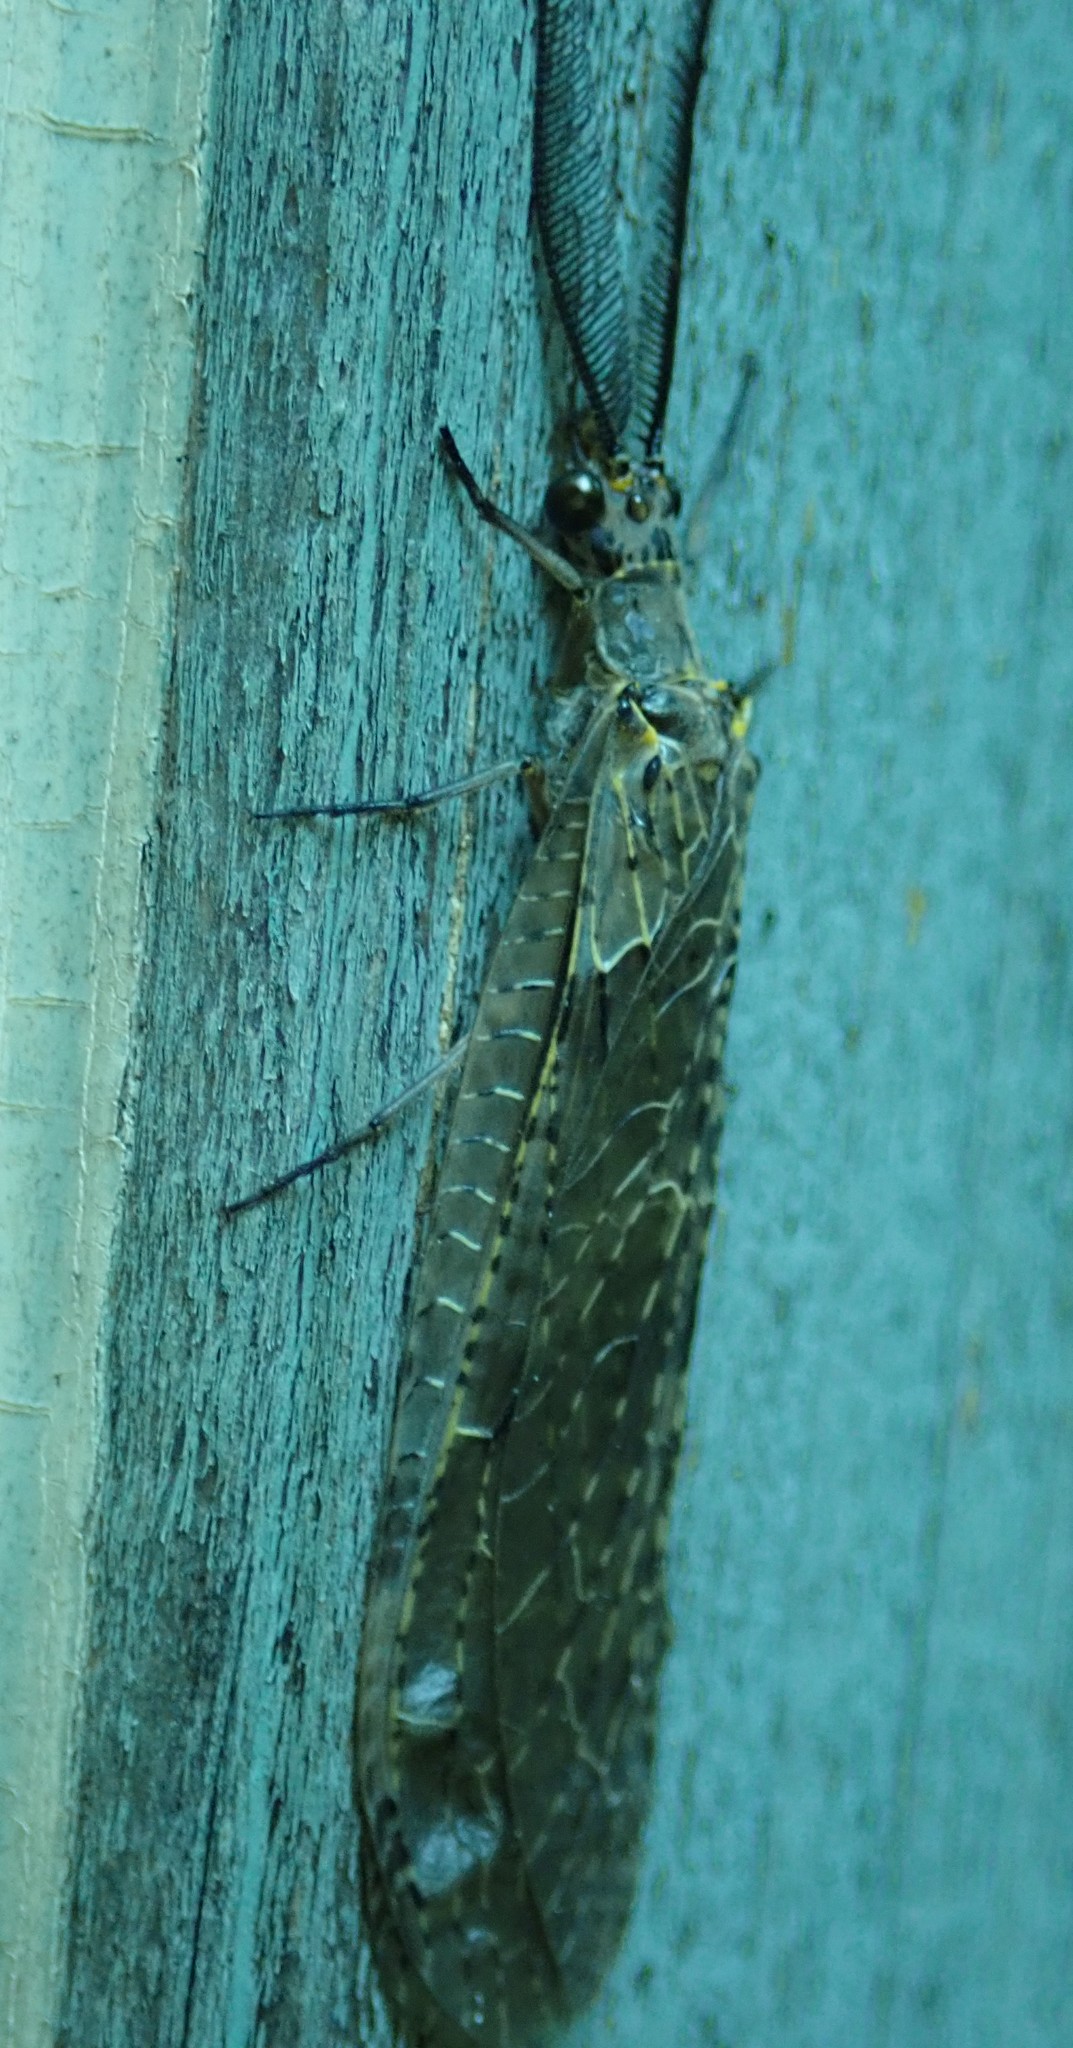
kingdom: Animalia
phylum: Arthropoda
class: Insecta
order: Megaloptera
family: Corydalidae
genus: Chauliodes
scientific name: Chauliodes rastricornis
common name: Spring fishfly
